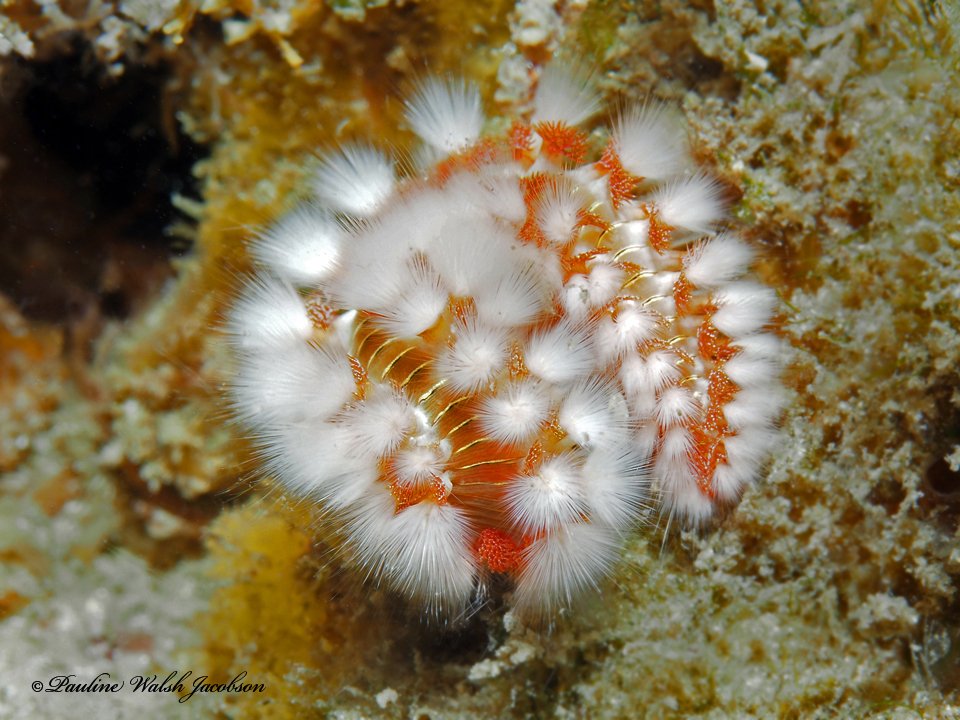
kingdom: Animalia
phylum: Annelida
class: Polychaeta
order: Amphinomida
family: Amphinomidae
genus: Hermodice
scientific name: Hermodice carunculata
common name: Bearded fireworm
